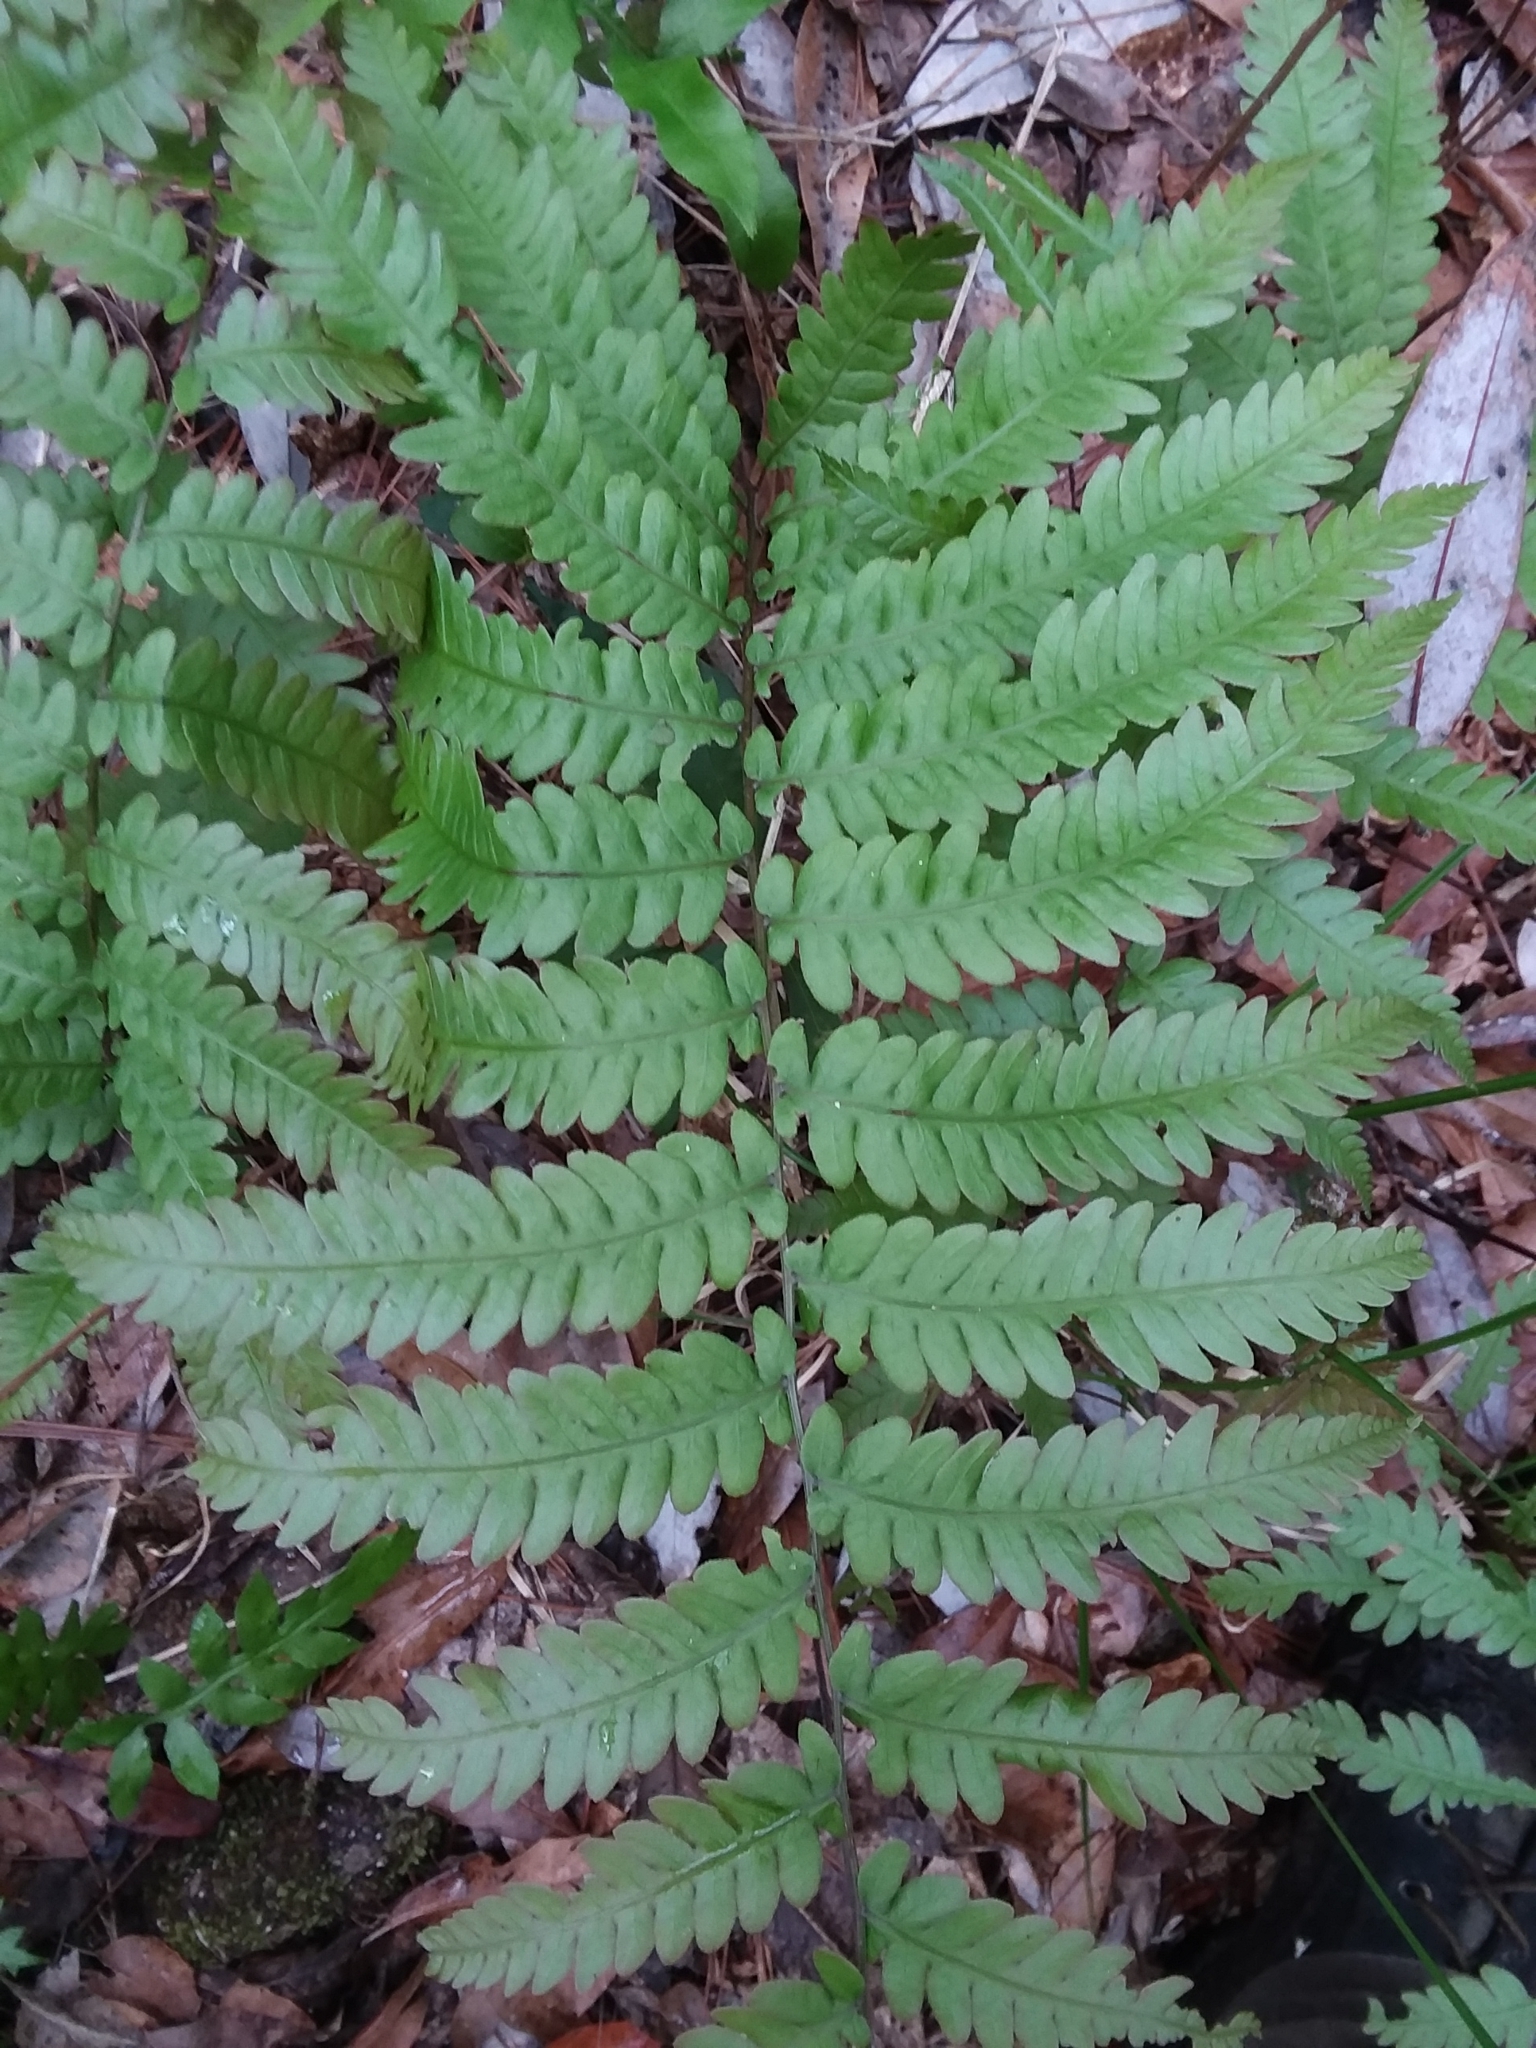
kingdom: Plantae
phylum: Tracheophyta
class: Polypodiopsida
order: Polypodiales
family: Blechnaceae
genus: Anchistea
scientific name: Anchistea virginica
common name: Virginia chain fern
